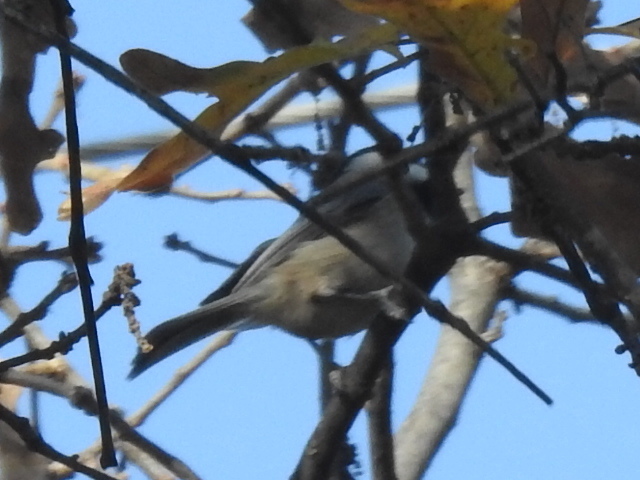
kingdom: Animalia
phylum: Chordata
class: Aves
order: Passeriformes
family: Paridae
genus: Poecile
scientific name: Poecile carolinensis
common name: Carolina chickadee
